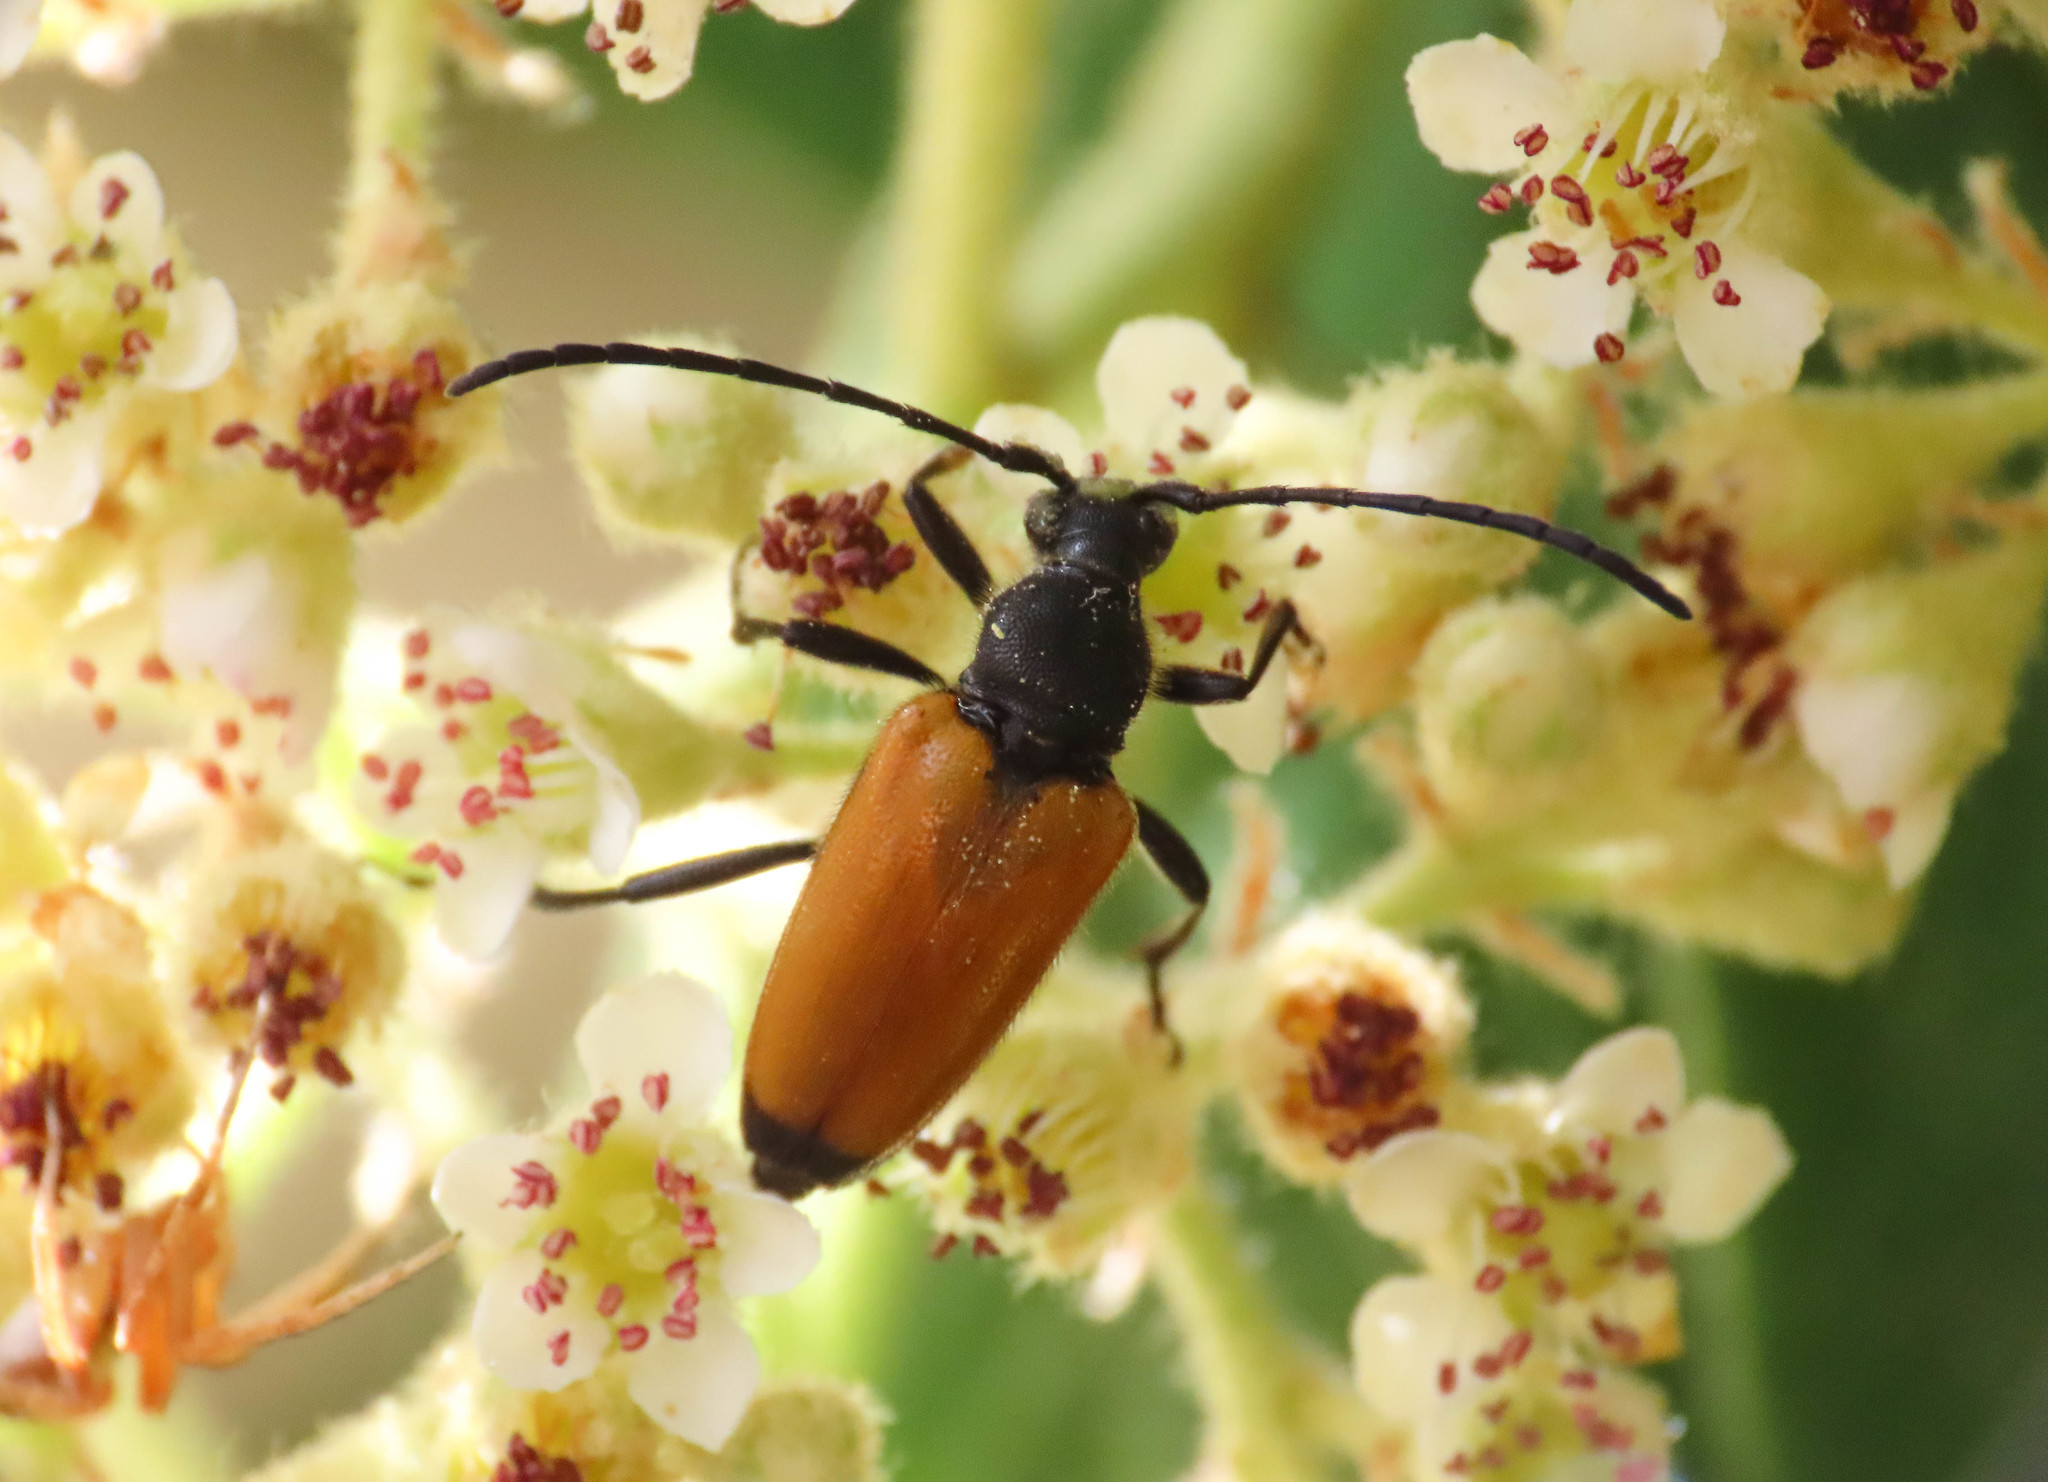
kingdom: Animalia
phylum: Arthropoda
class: Insecta
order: Coleoptera
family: Cerambycidae
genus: Paracorymbia
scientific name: Paracorymbia fulva
